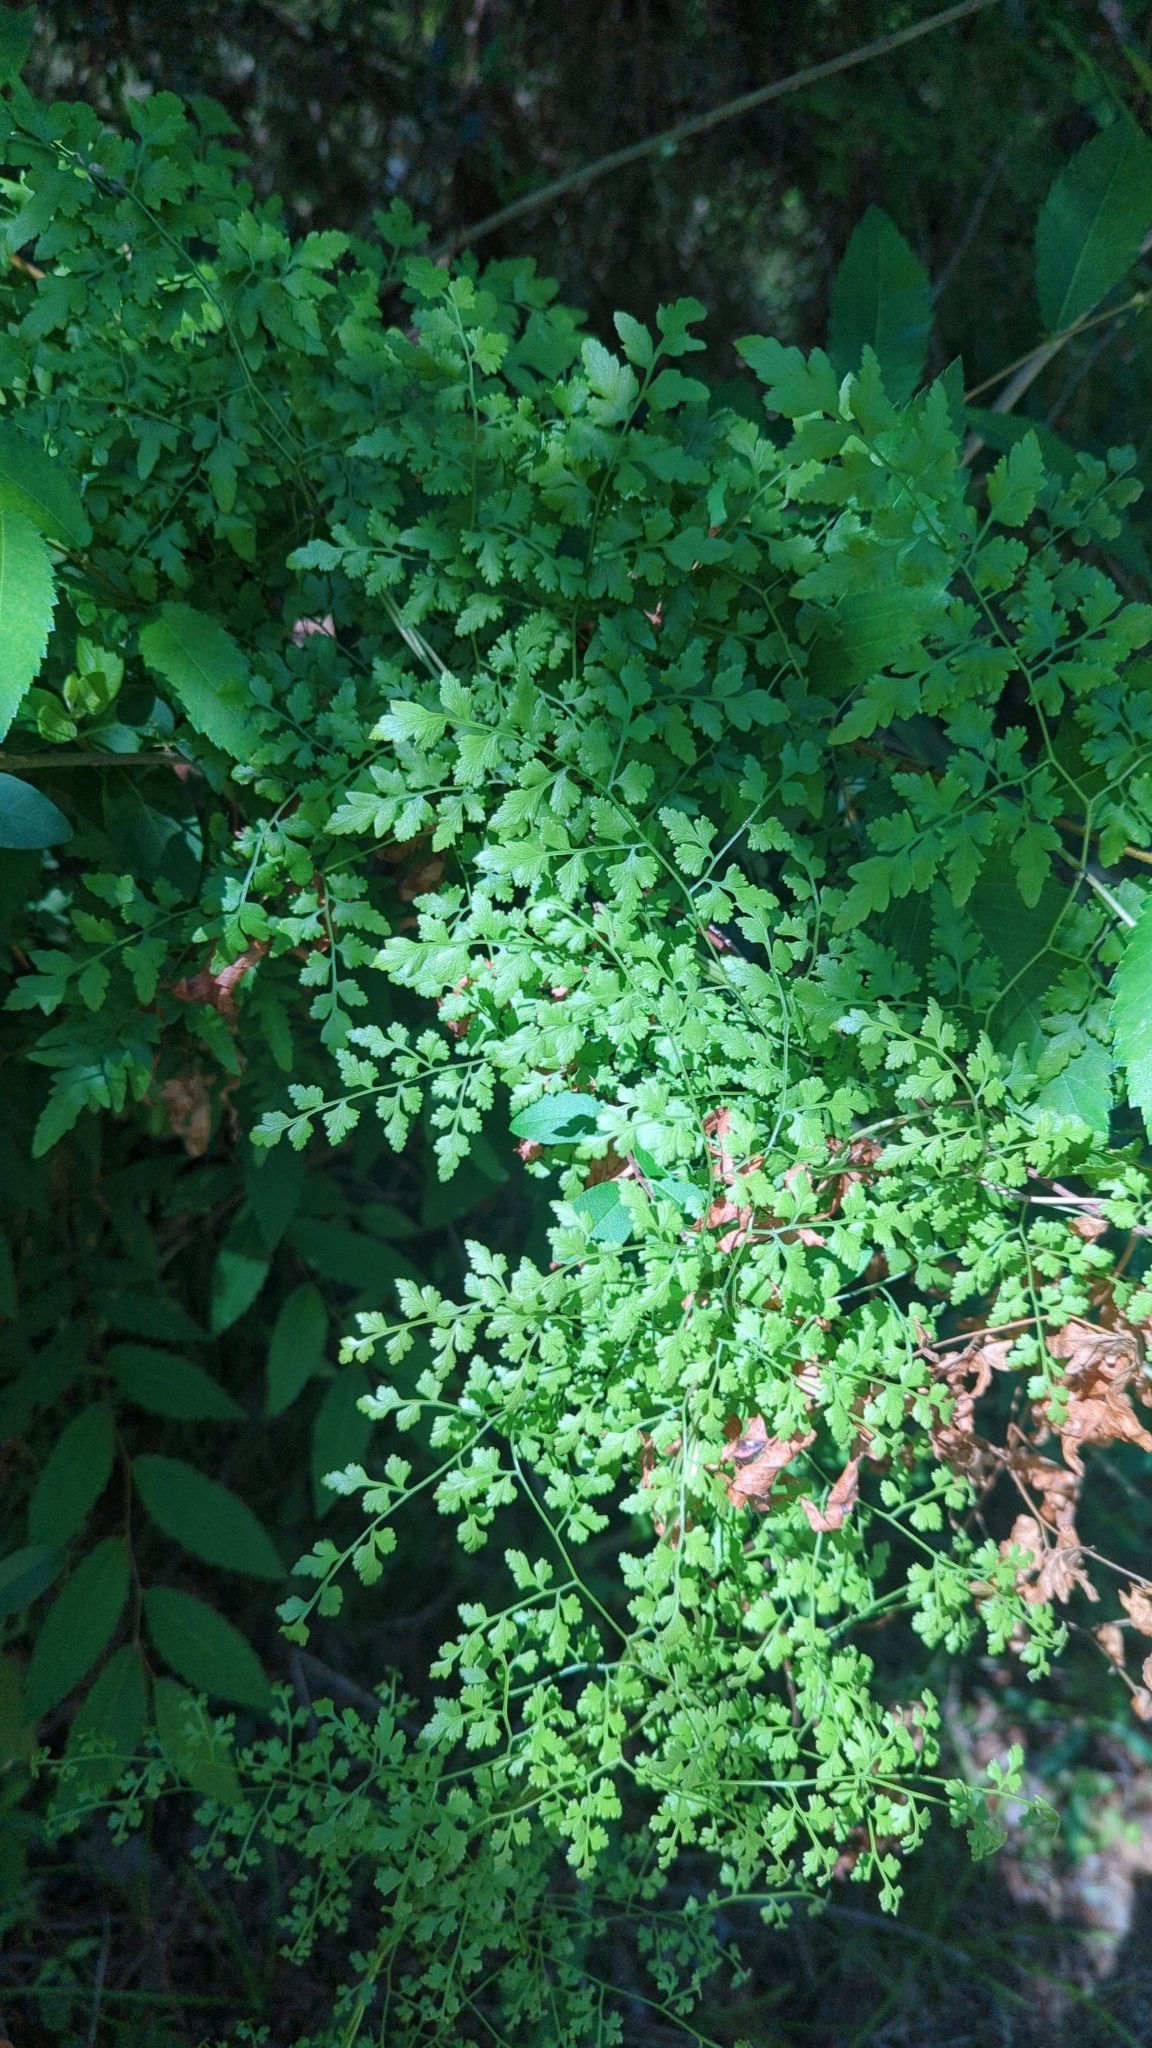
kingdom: Plantae
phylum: Tracheophyta
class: Polypodiopsida
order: Schizaeales
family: Lygodiaceae
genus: Lygodium
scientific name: Lygodium japonicum
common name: Japanese climbing fern
